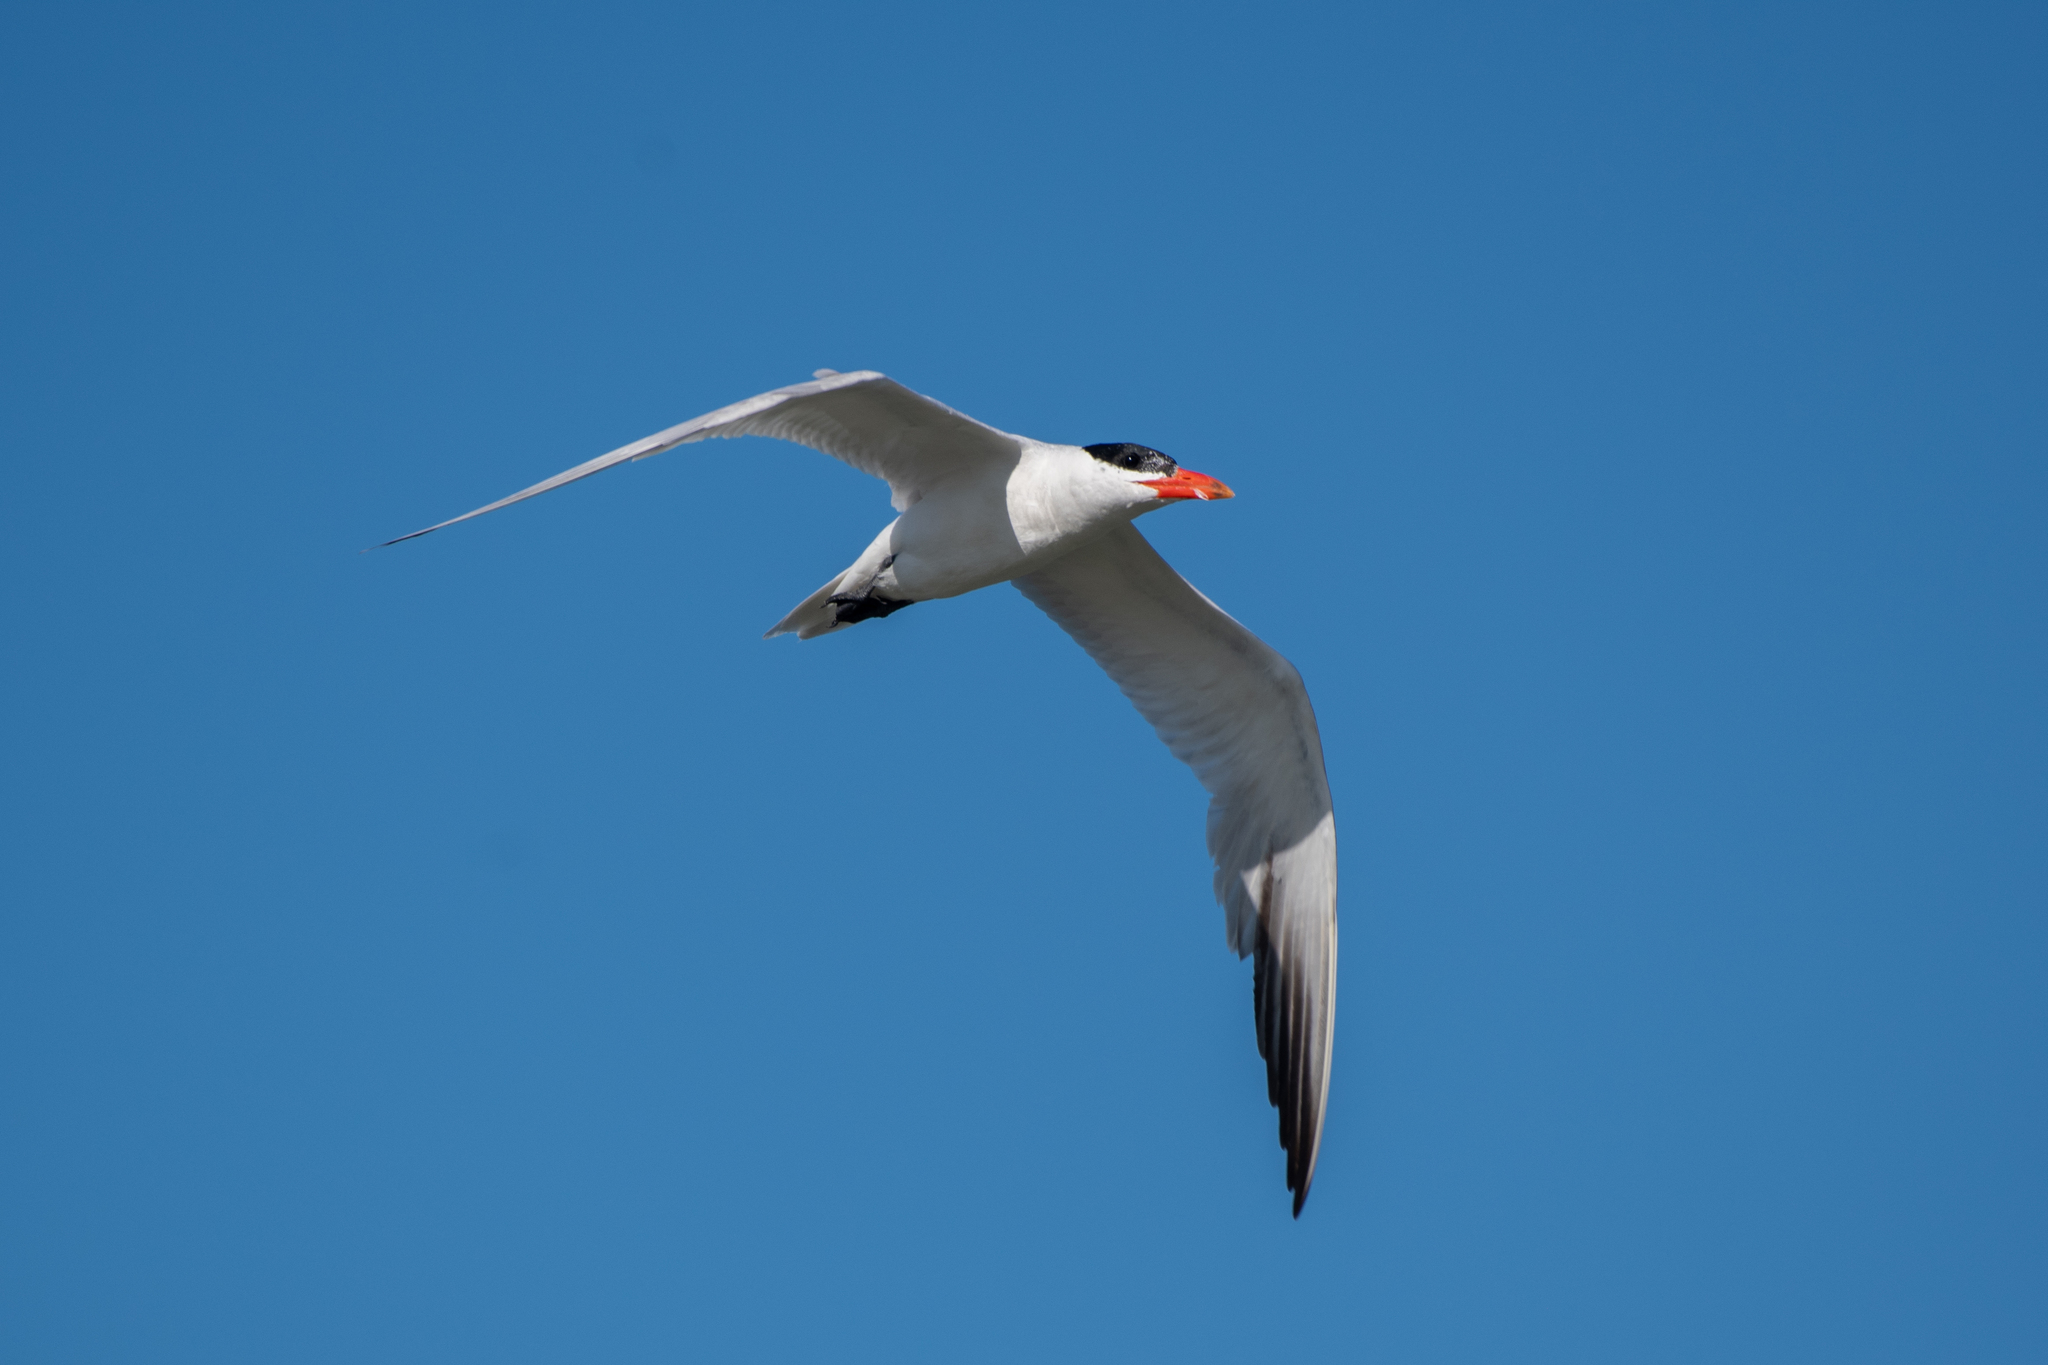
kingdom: Animalia
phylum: Chordata
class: Aves
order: Charadriiformes
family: Laridae
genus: Hydroprogne
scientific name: Hydroprogne caspia
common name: Caspian tern
